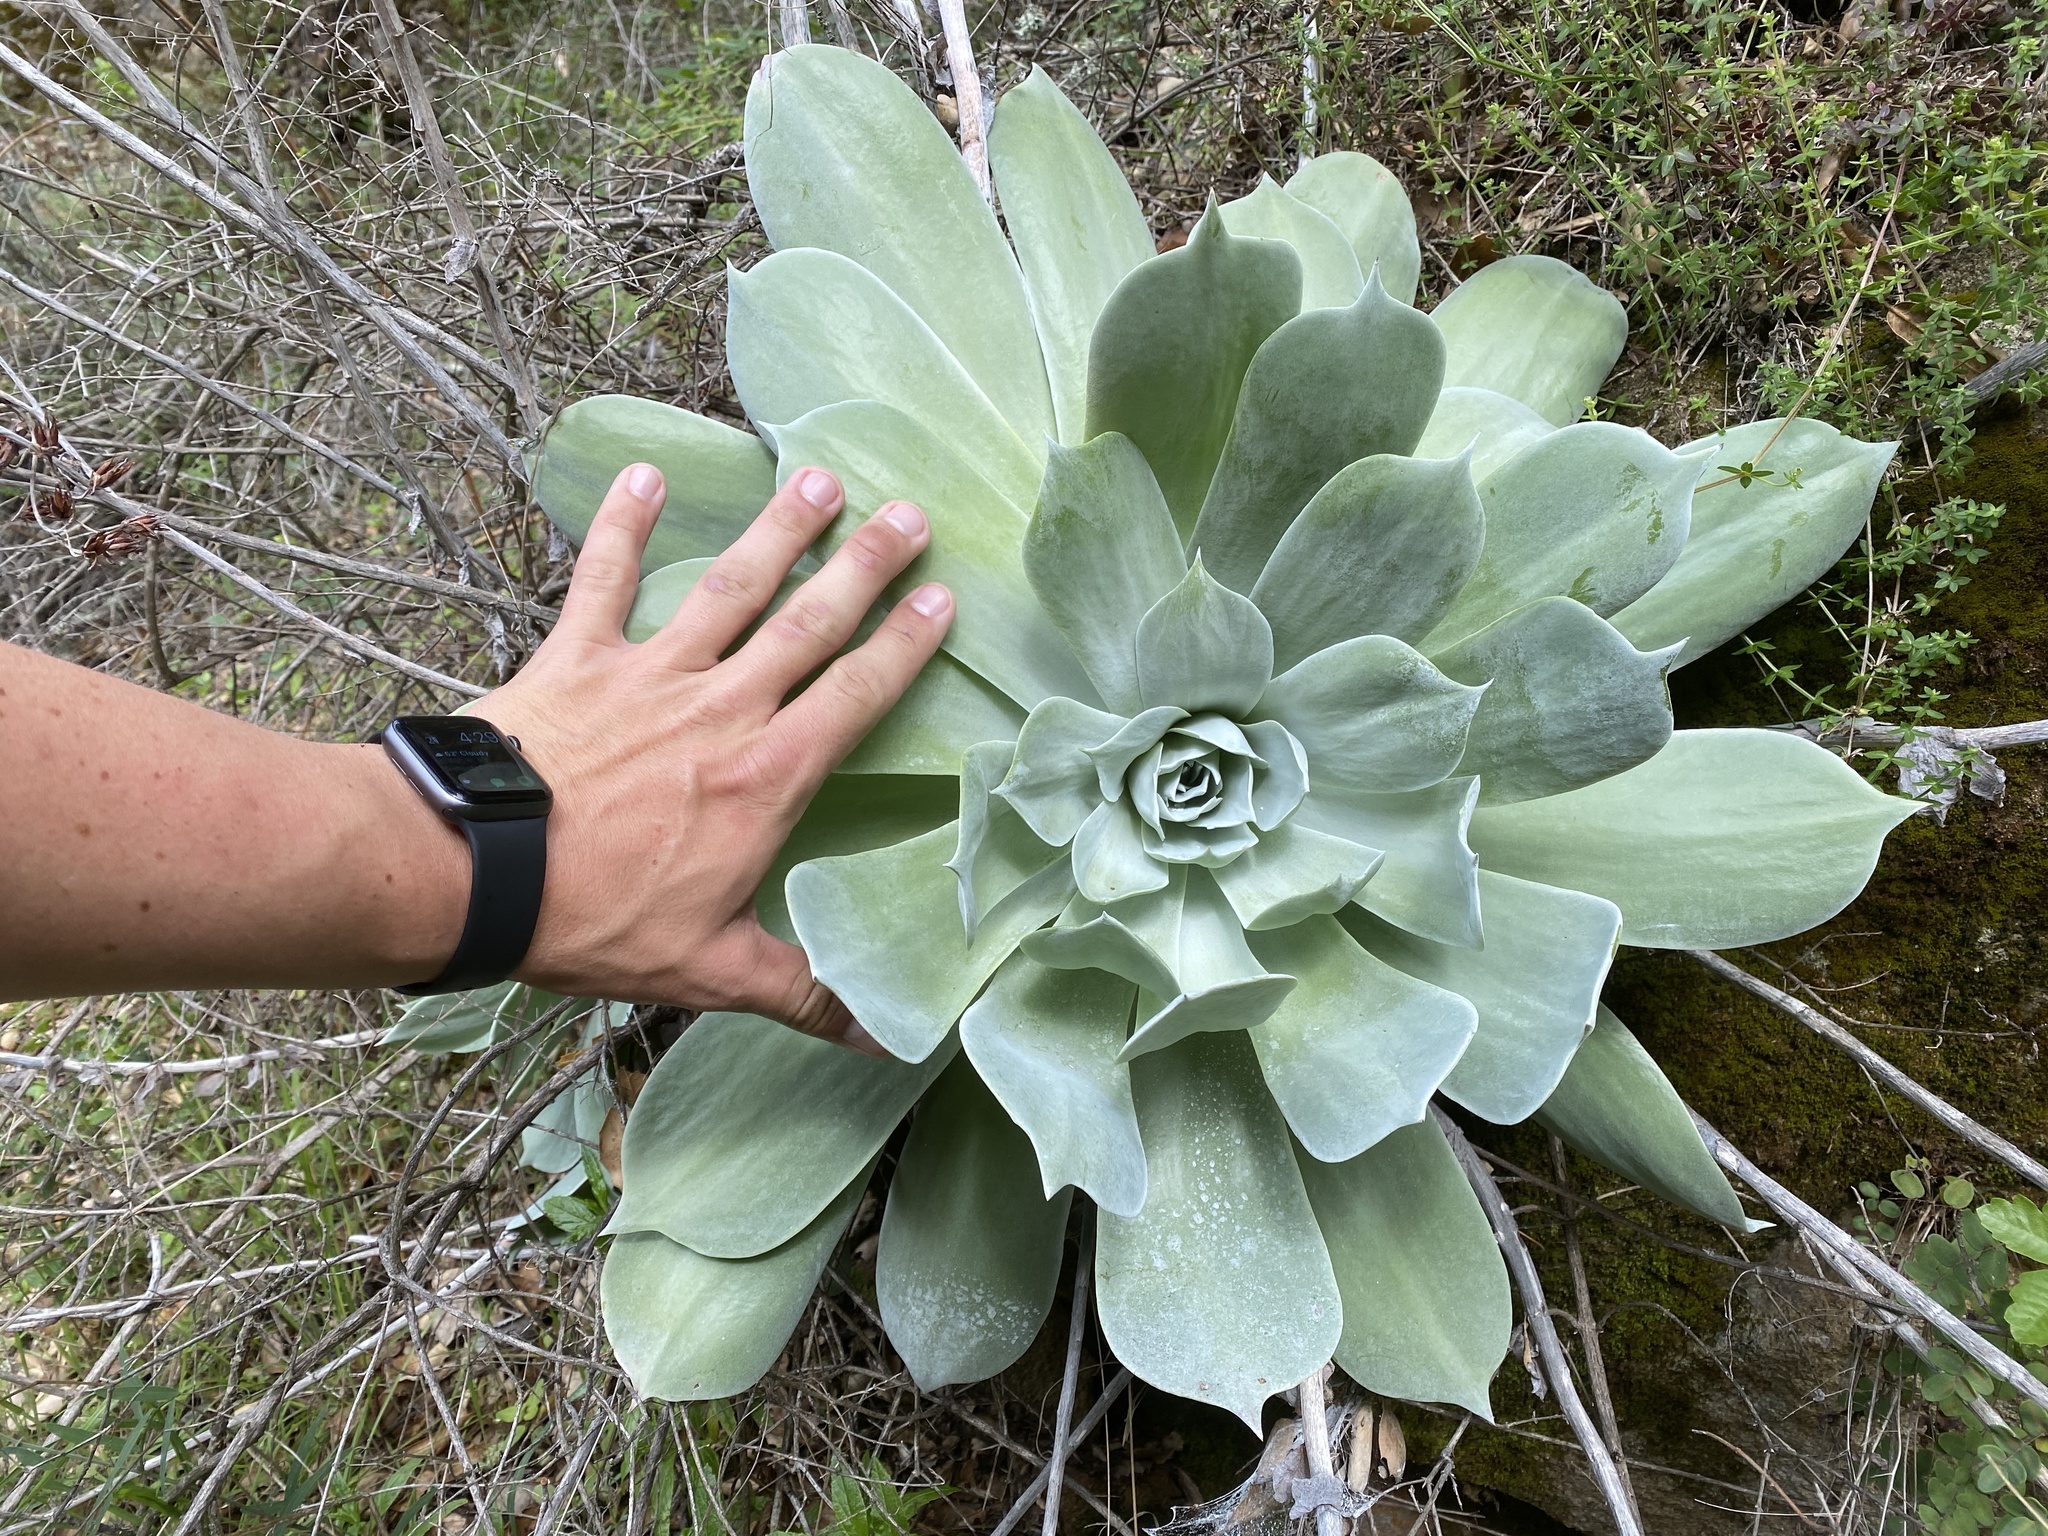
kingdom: Plantae
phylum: Tracheophyta
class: Magnoliopsida
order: Saxifragales
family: Crassulaceae
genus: Dudleya
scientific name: Dudleya pulverulenta
